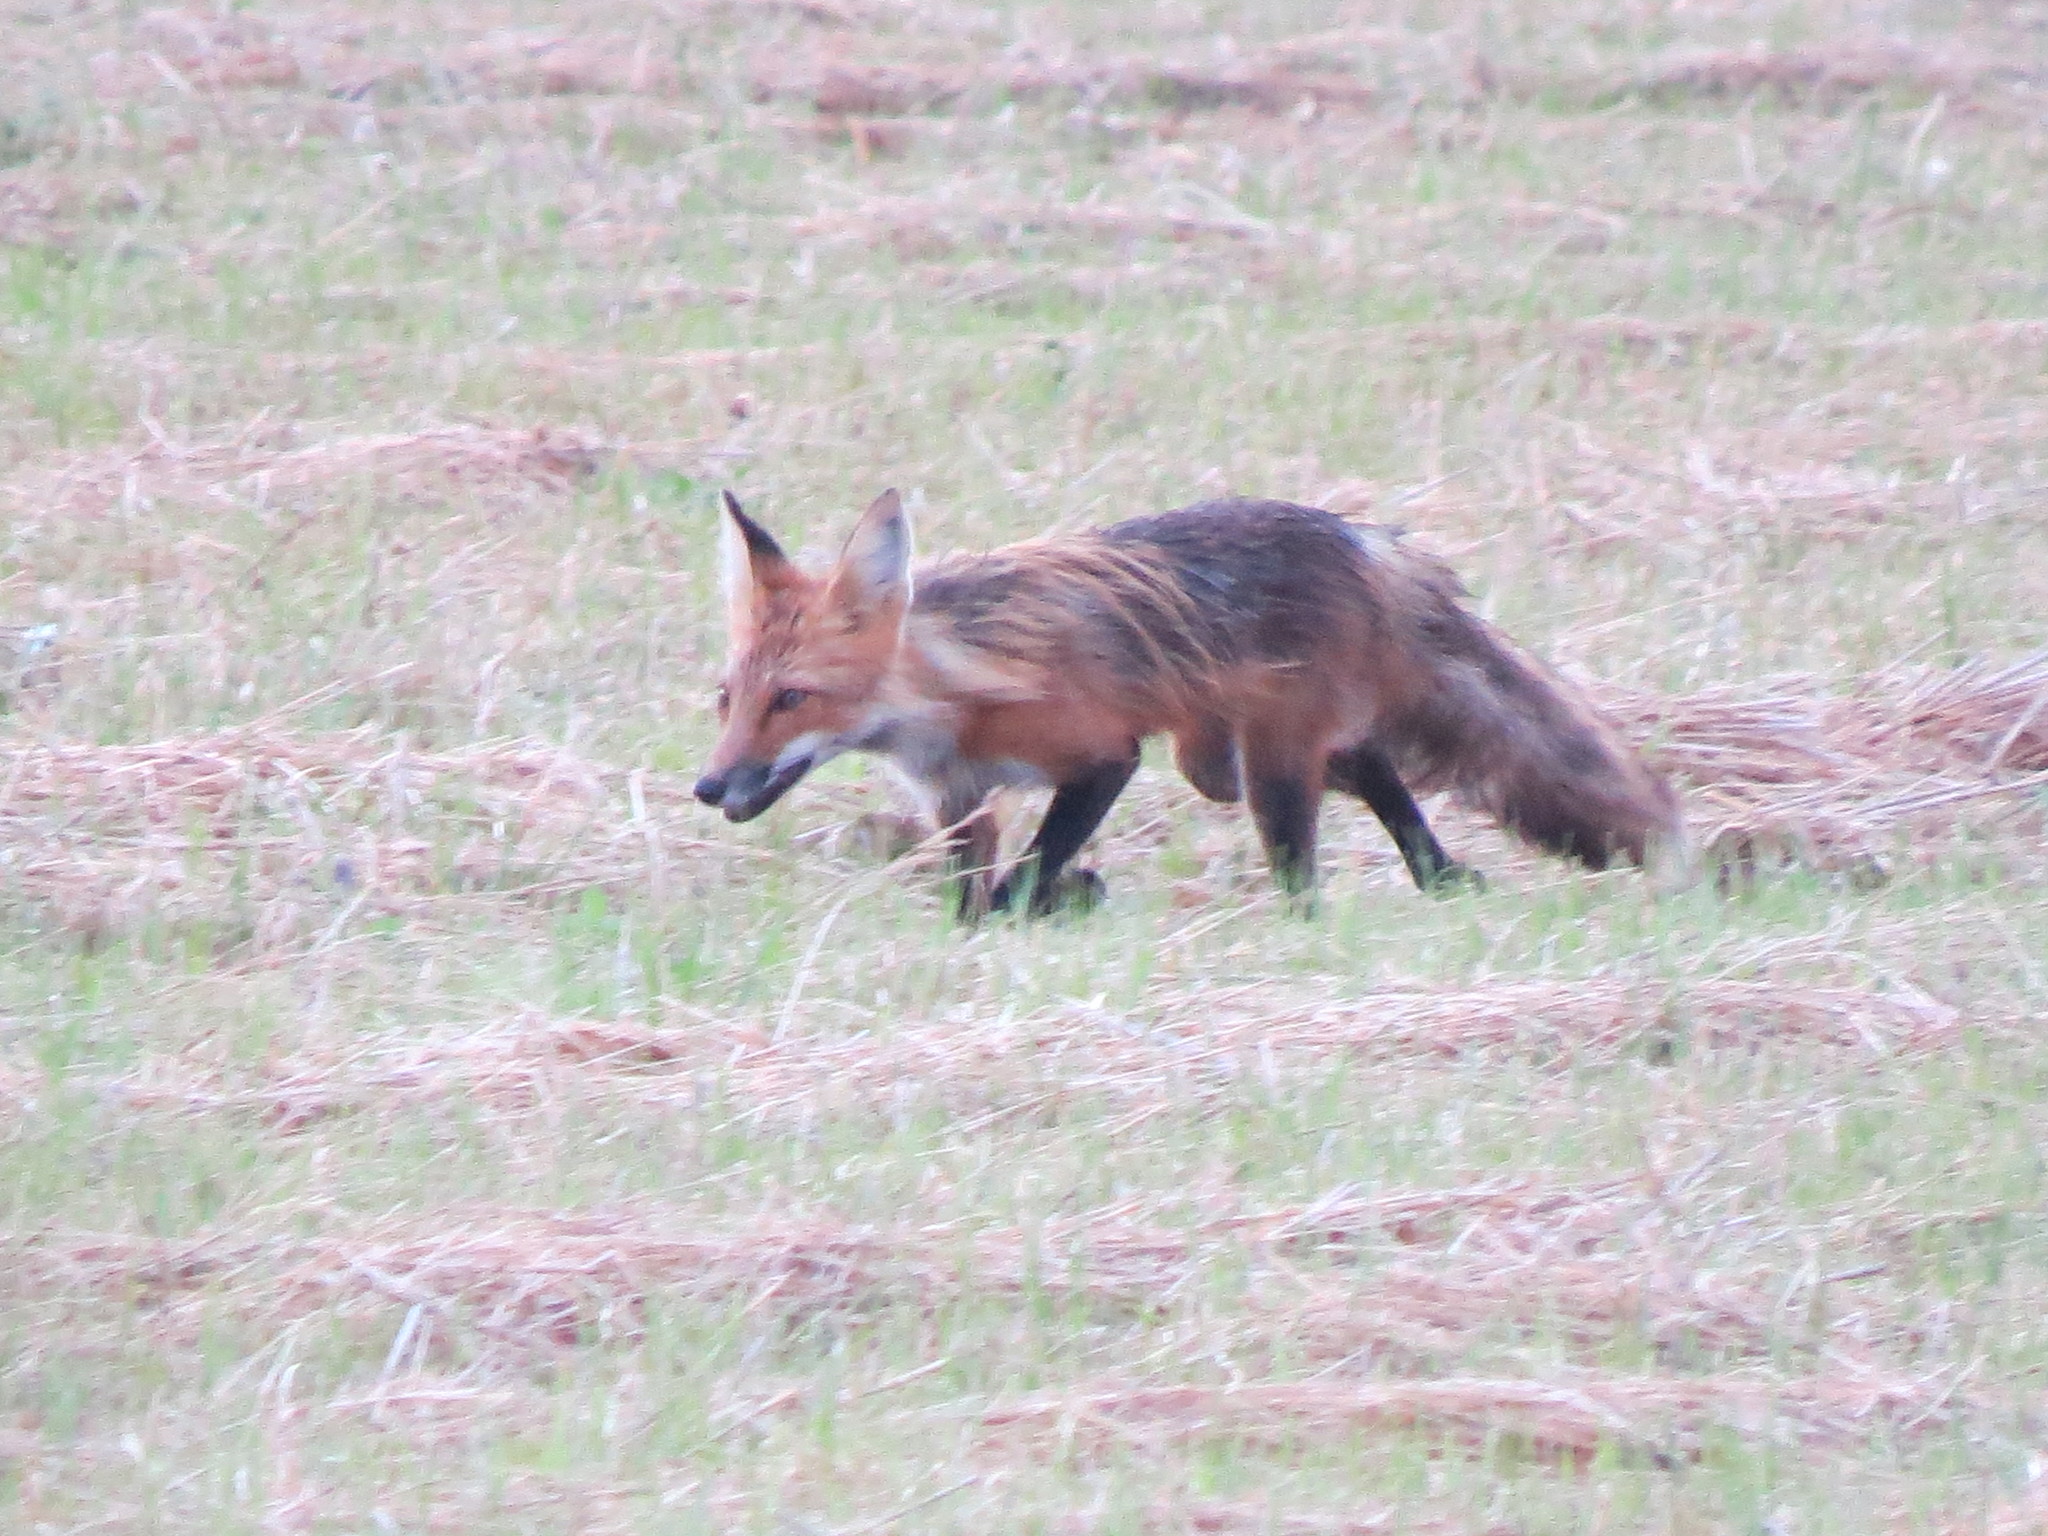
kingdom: Animalia
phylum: Chordata
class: Mammalia
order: Carnivora
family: Canidae
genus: Vulpes
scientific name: Vulpes vulpes
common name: Red fox
